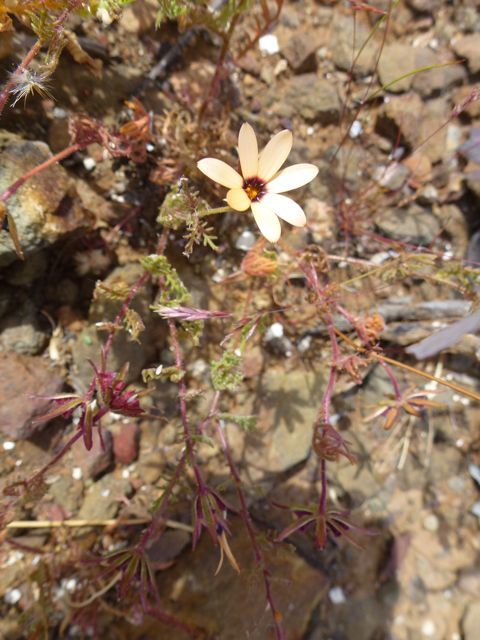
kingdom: Plantae
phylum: Tracheophyta
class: Magnoliopsida
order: Asterales
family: Asteraceae
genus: Dimorphotheca
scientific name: Dimorphotheca pinnata
